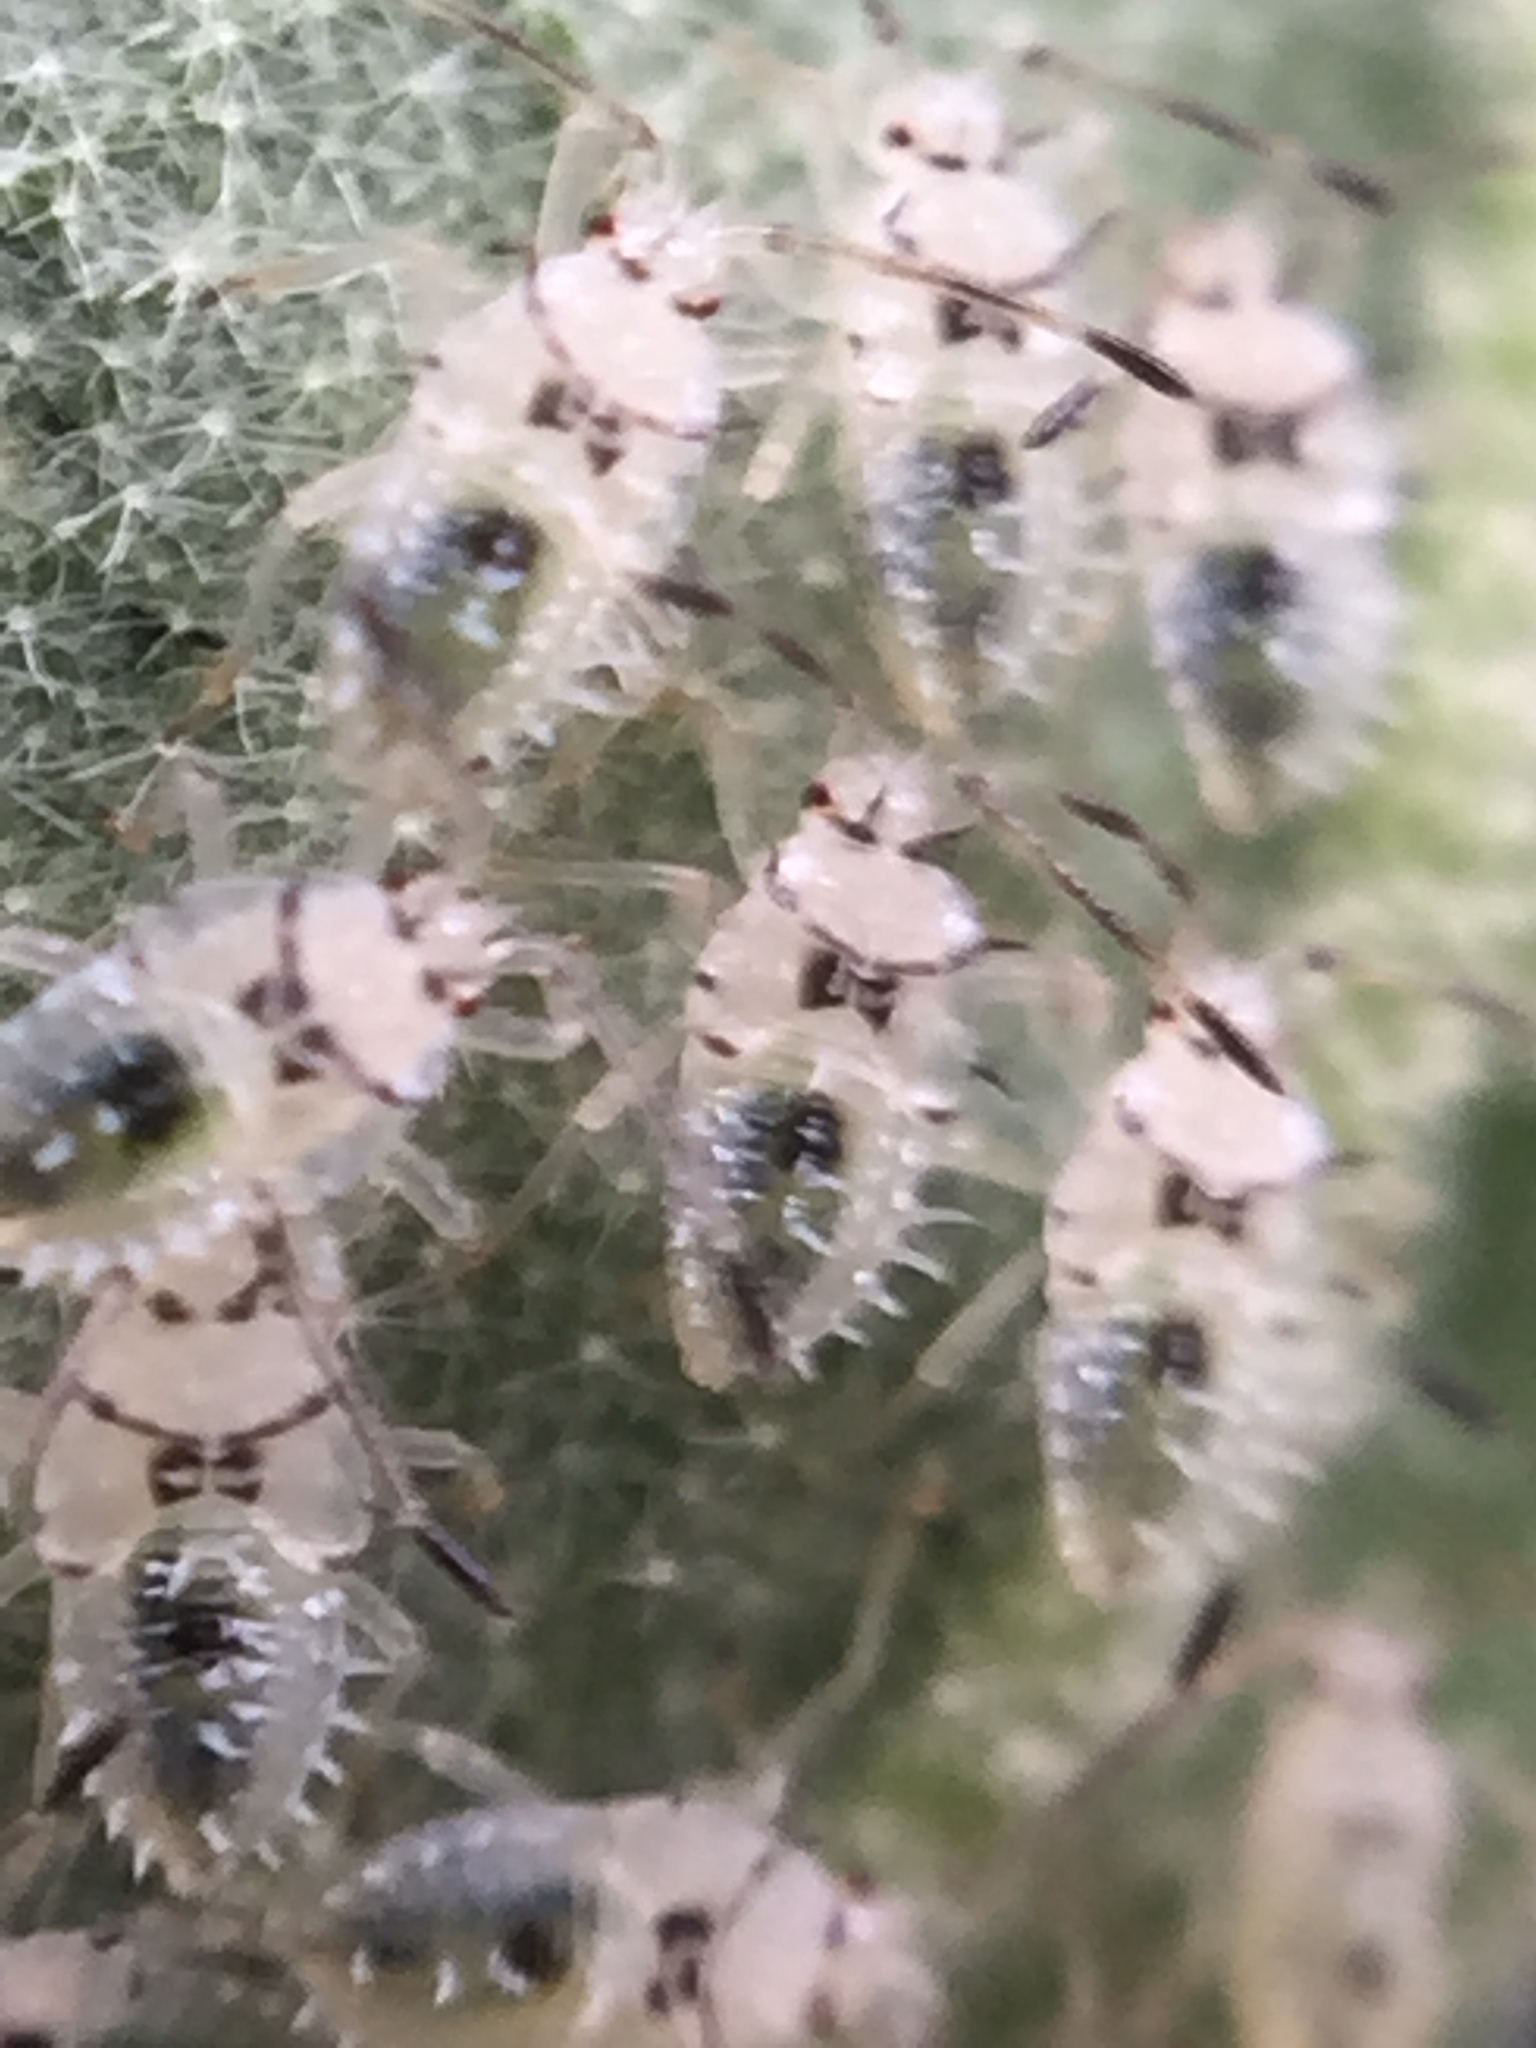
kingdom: Animalia
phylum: Arthropoda
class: Insecta
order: Hemiptera
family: Tingidae
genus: Gargaphia
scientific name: Gargaphia decoris
